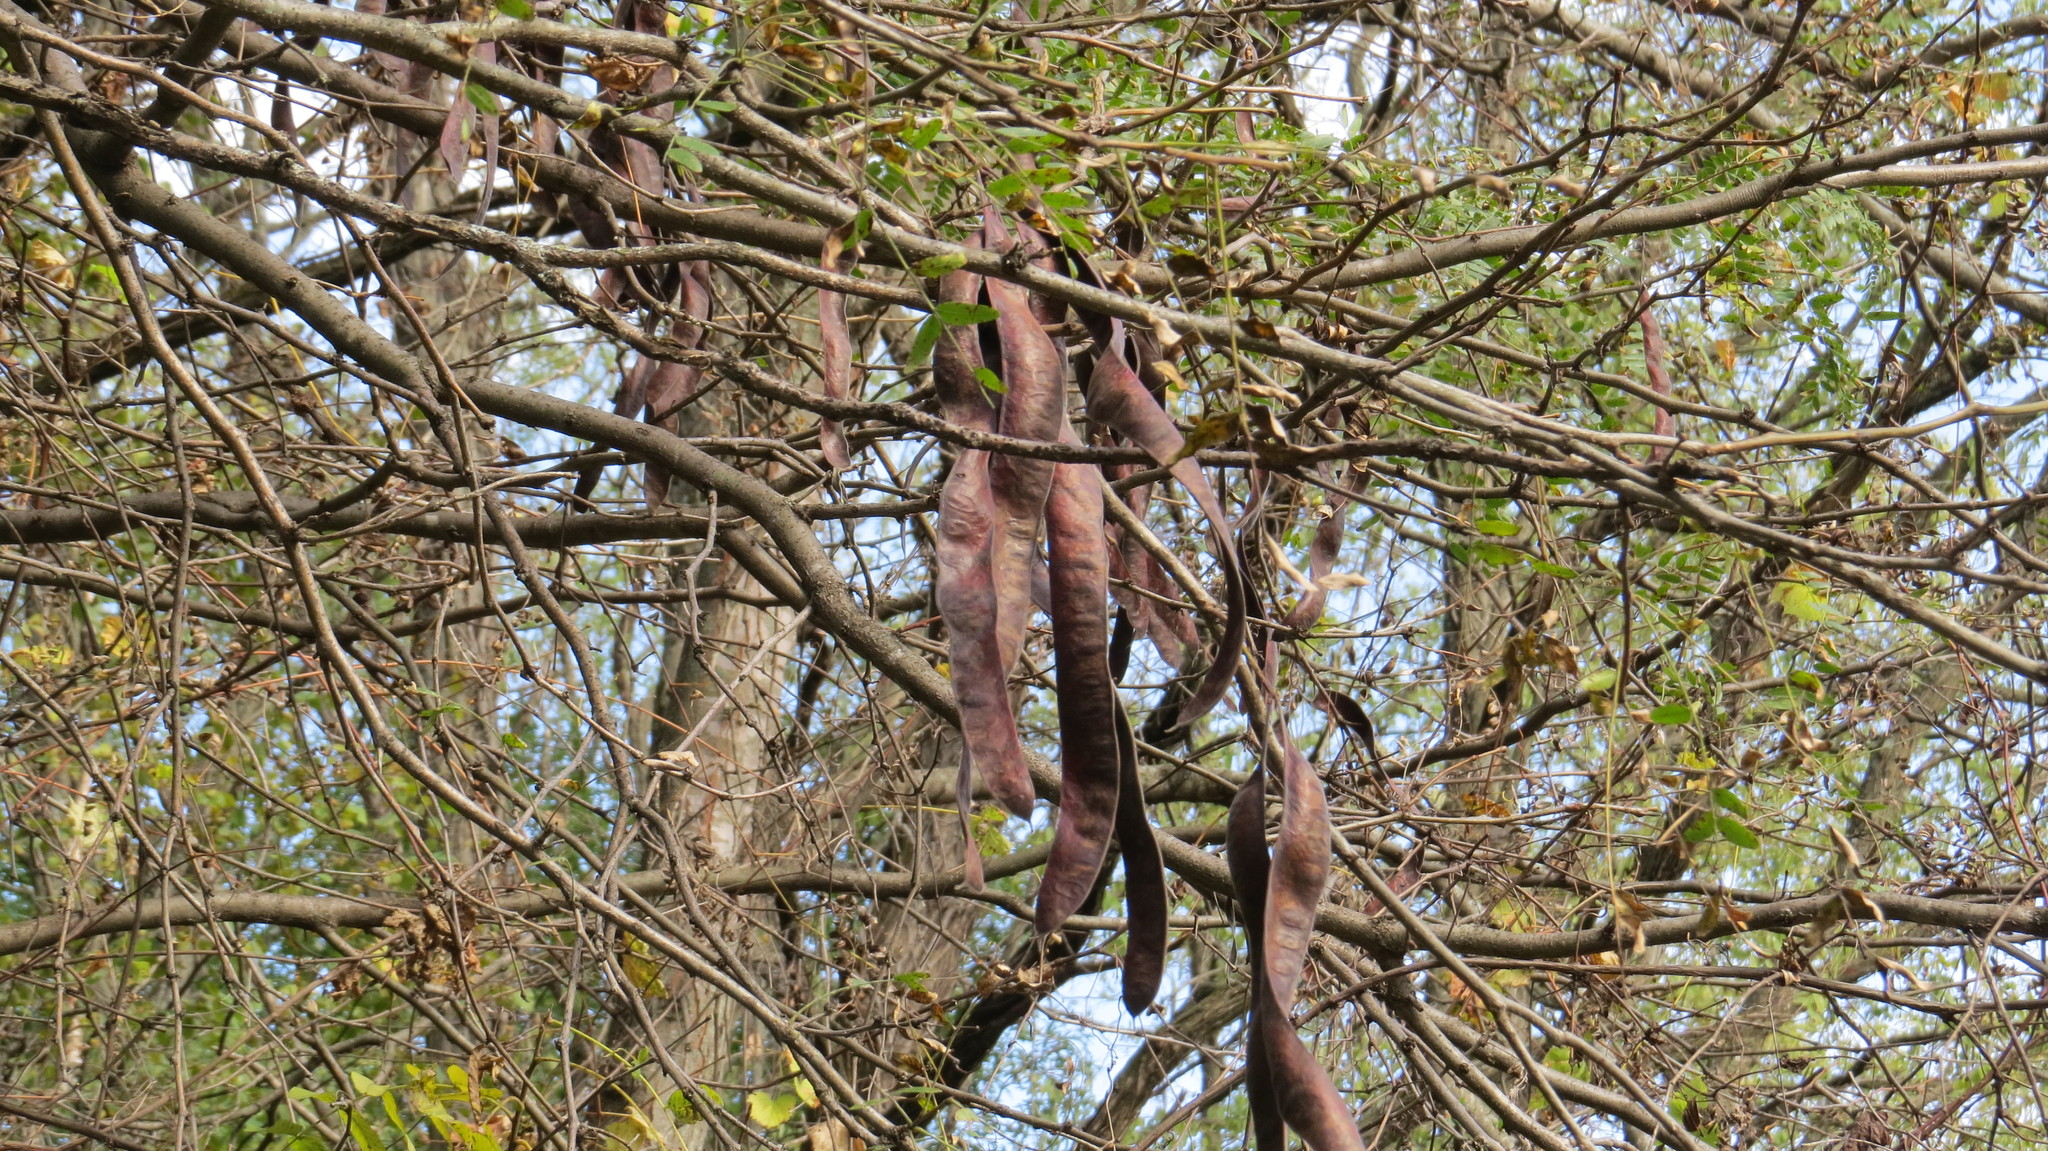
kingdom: Plantae
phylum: Tracheophyta
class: Magnoliopsida
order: Fabales
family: Fabaceae
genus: Gleditsia
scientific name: Gleditsia triacanthos
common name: Common honeylocust
